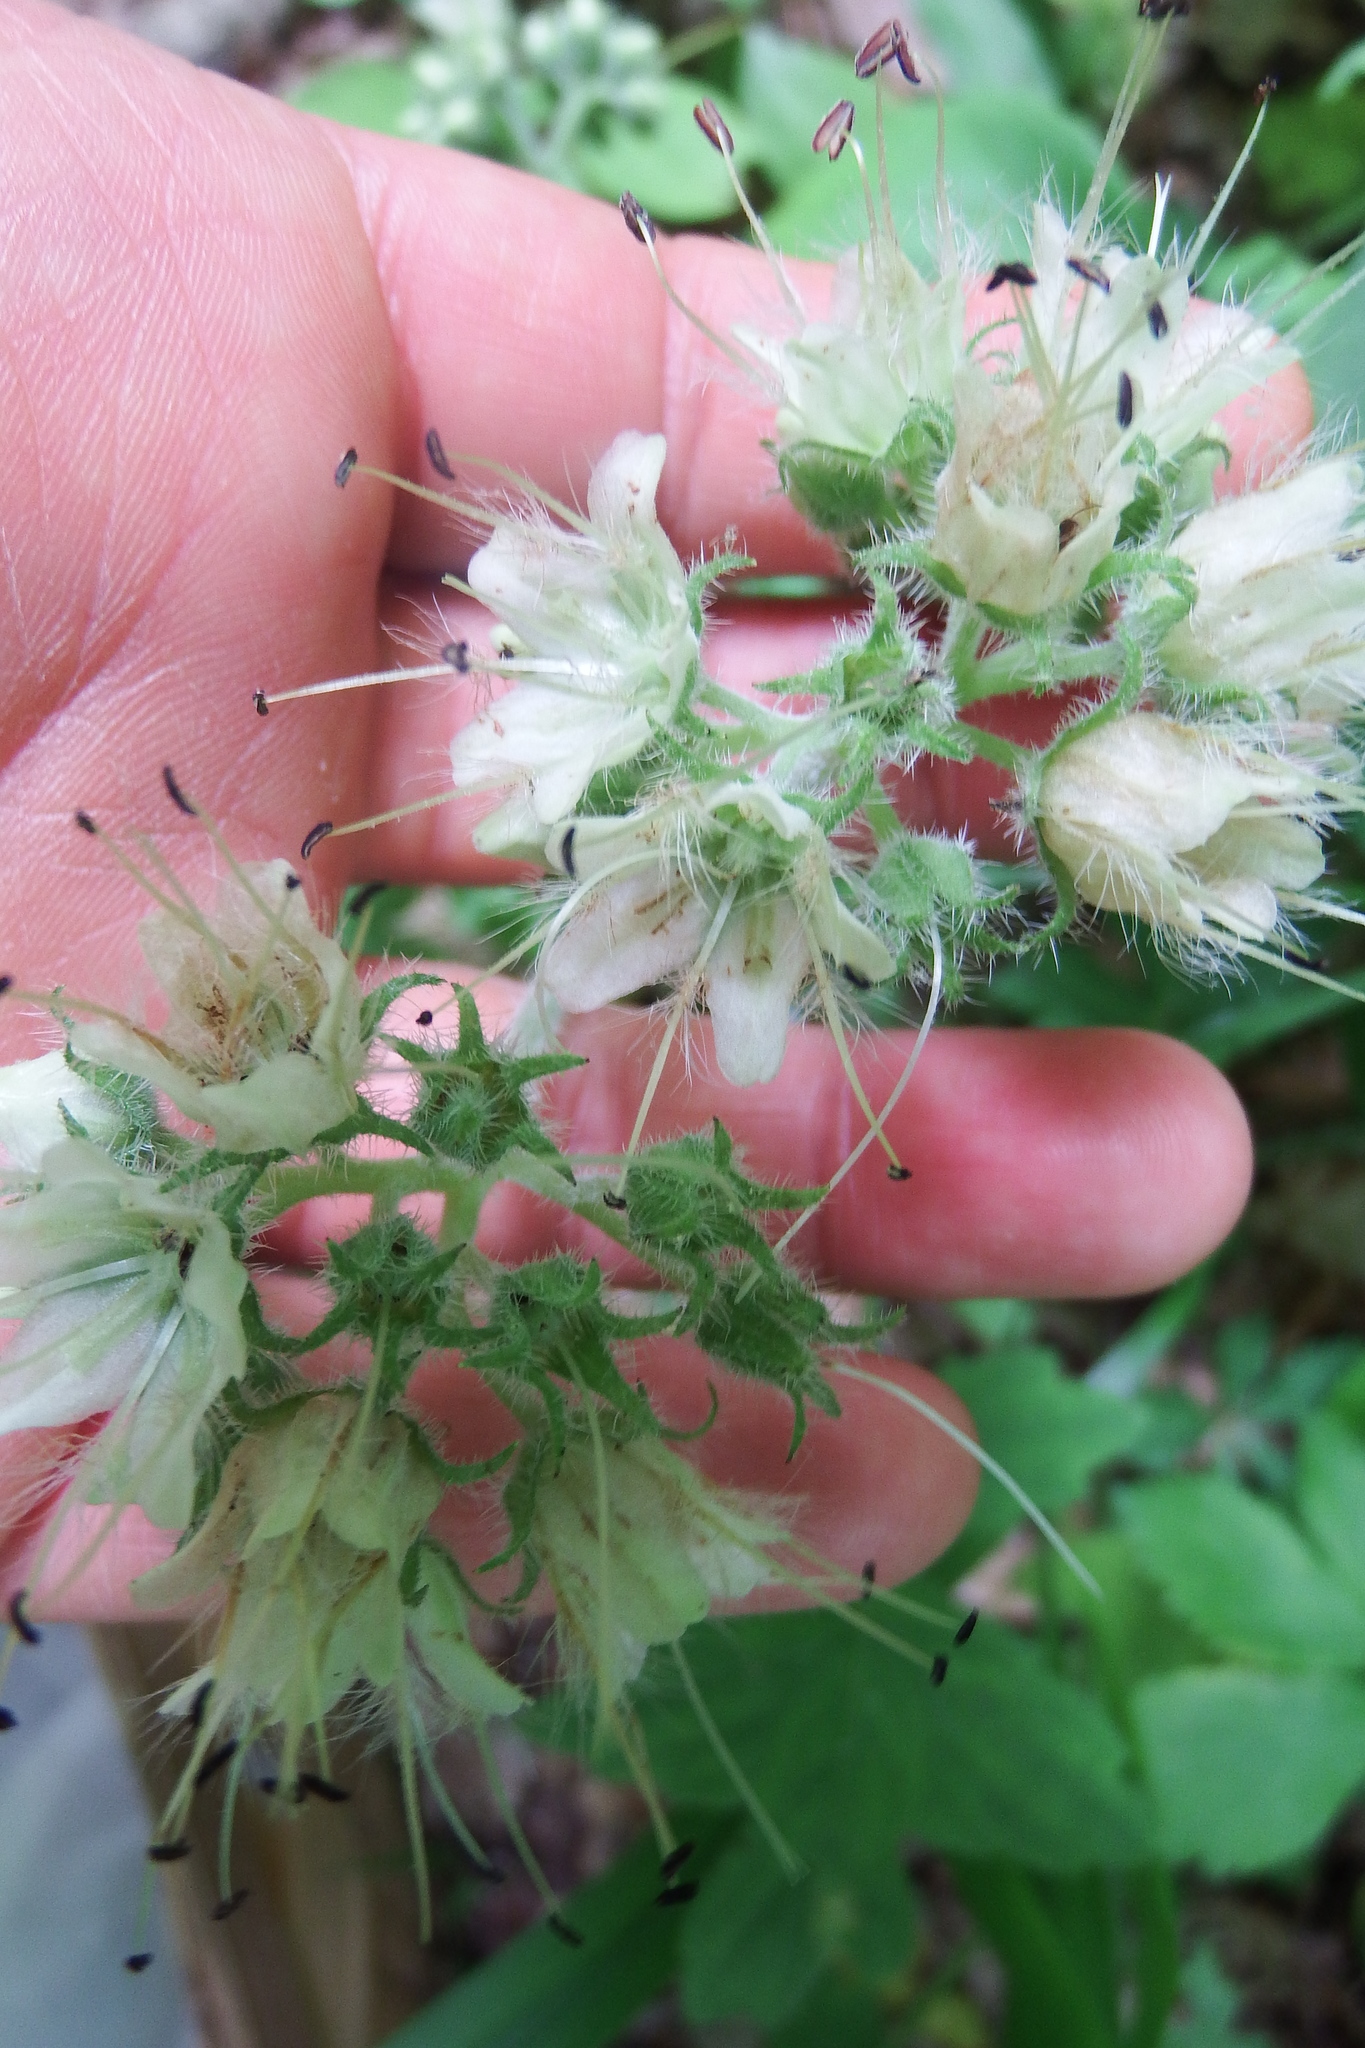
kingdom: Plantae
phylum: Tracheophyta
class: Magnoliopsida
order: Boraginales
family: Hydrophyllaceae
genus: Hydrophyllum
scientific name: Hydrophyllum macrophyllum
